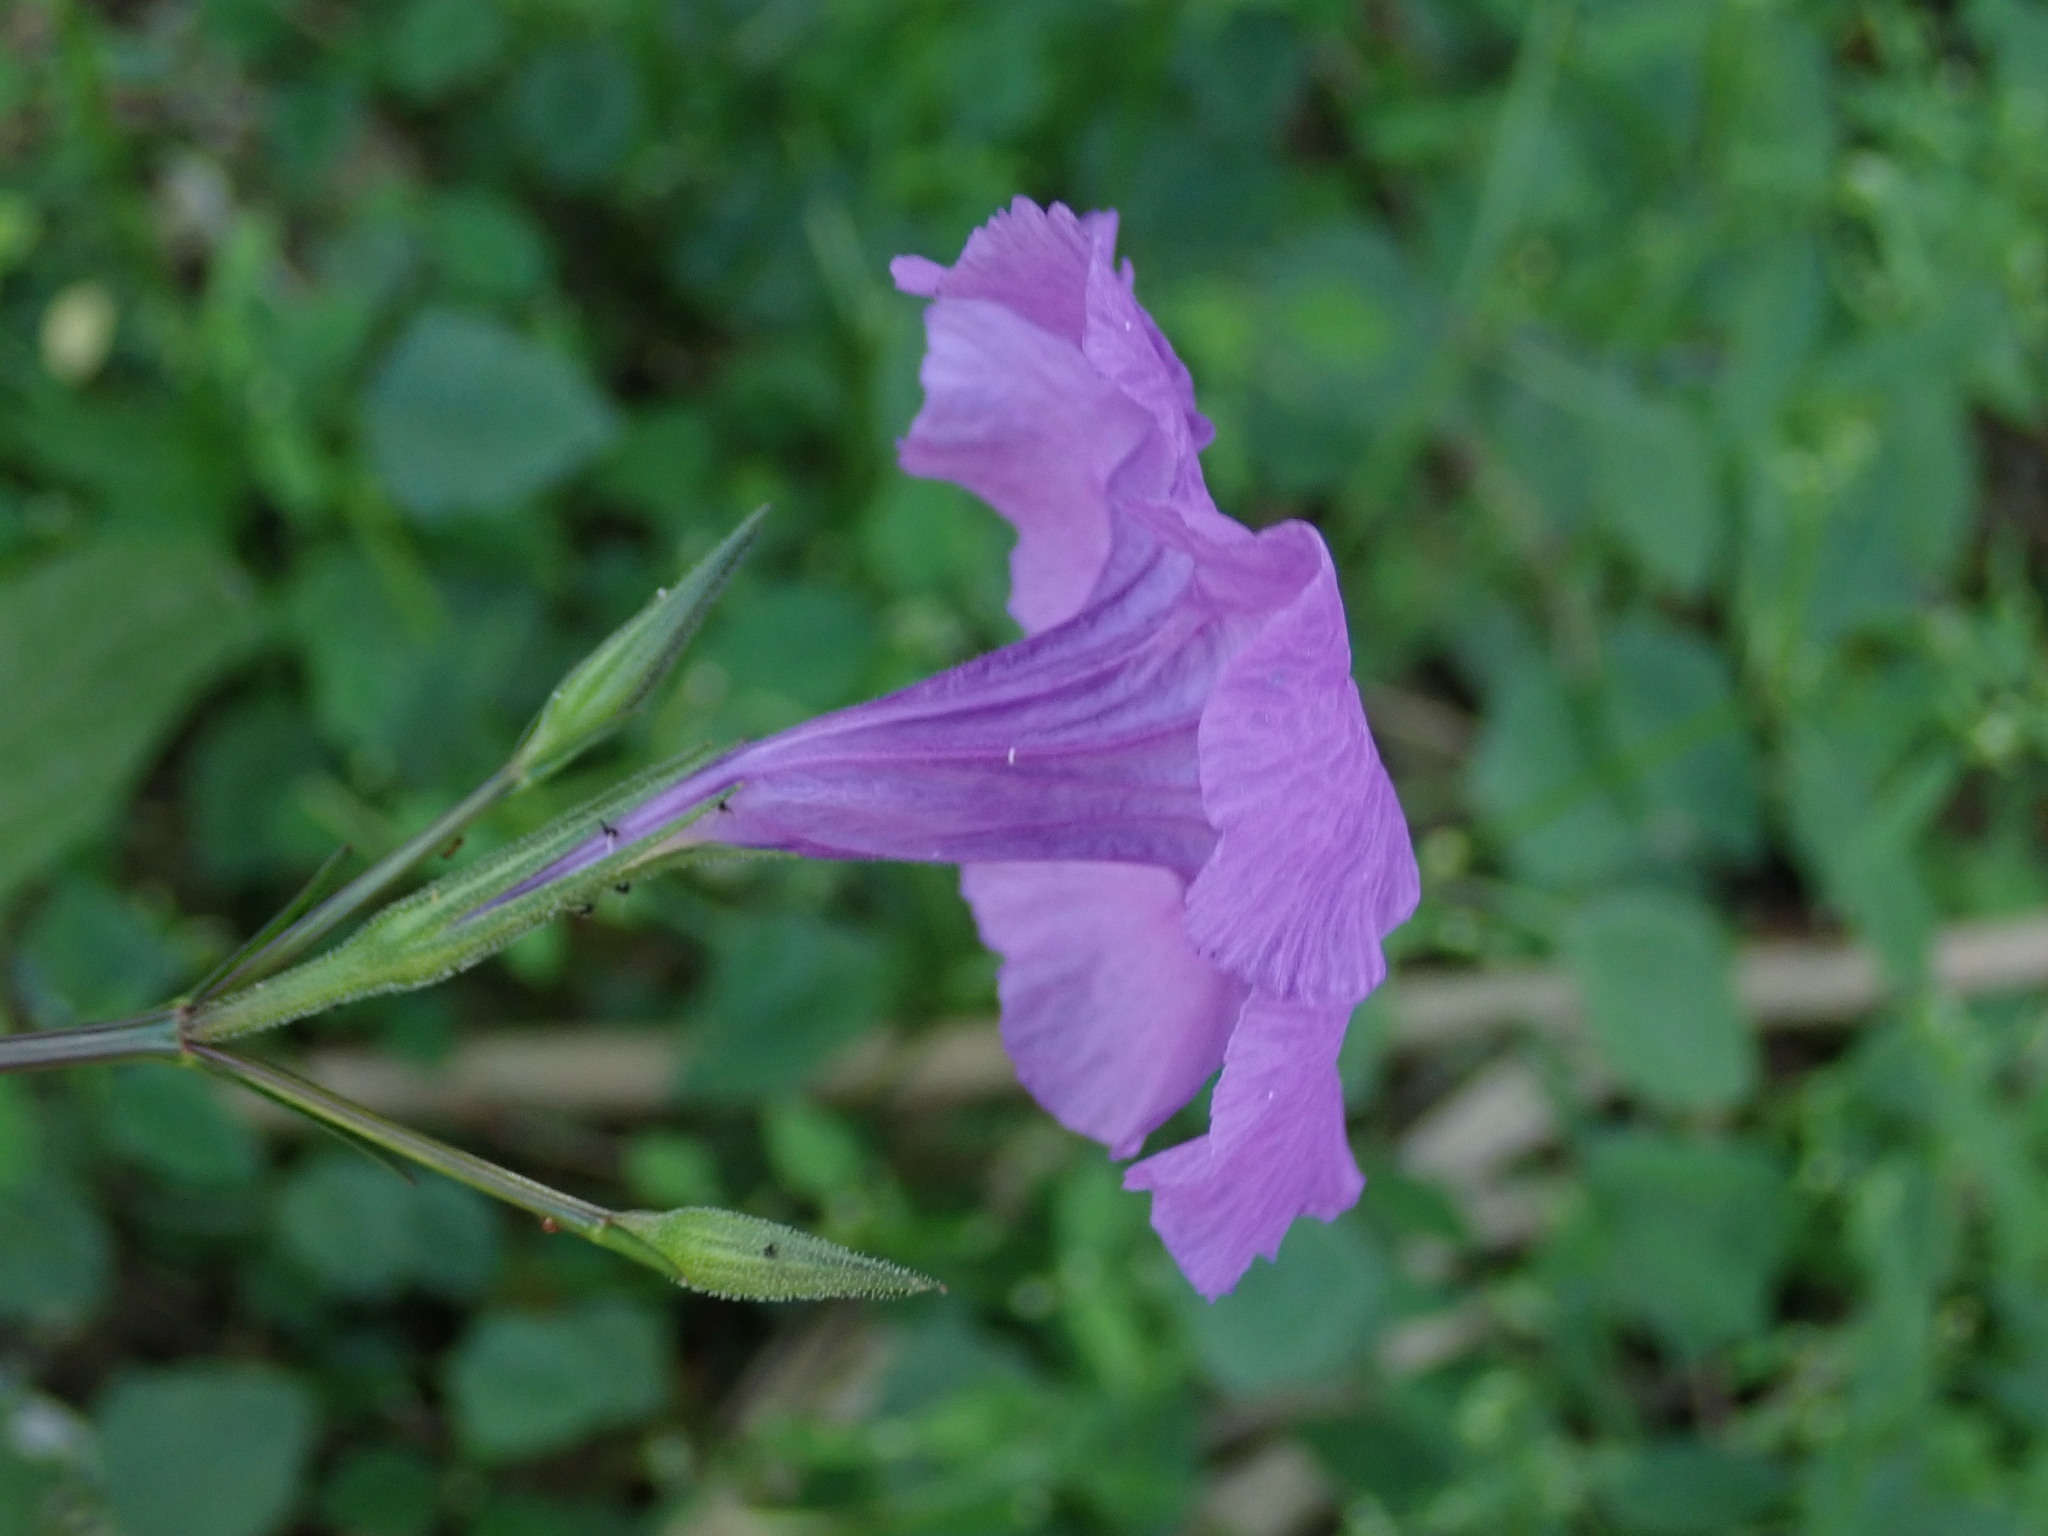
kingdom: Plantae
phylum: Tracheophyta
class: Magnoliopsida
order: Lamiales
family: Acanthaceae
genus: Ruellia
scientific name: Ruellia simplex
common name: Softseed wild petunia
